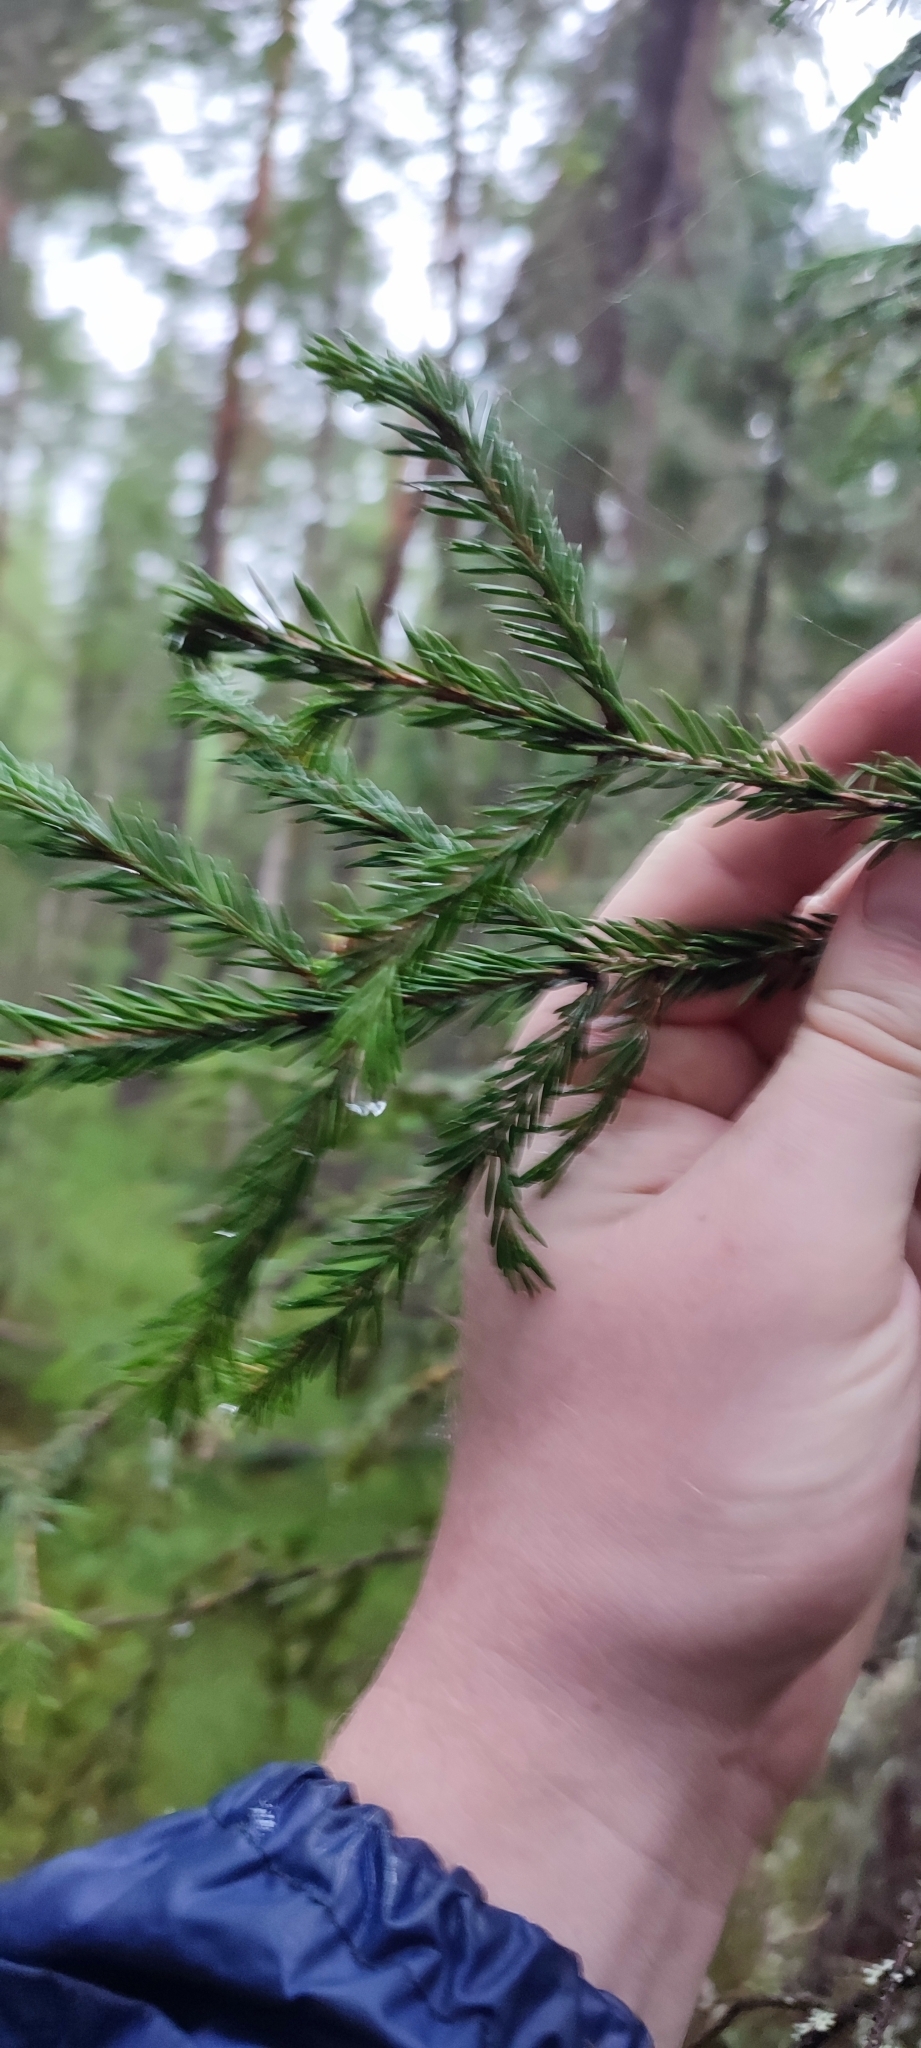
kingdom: Plantae
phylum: Tracheophyta
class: Pinopsida
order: Pinales
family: Pinaceae
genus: Picea
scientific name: Picea obovata
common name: Siberian spruce
